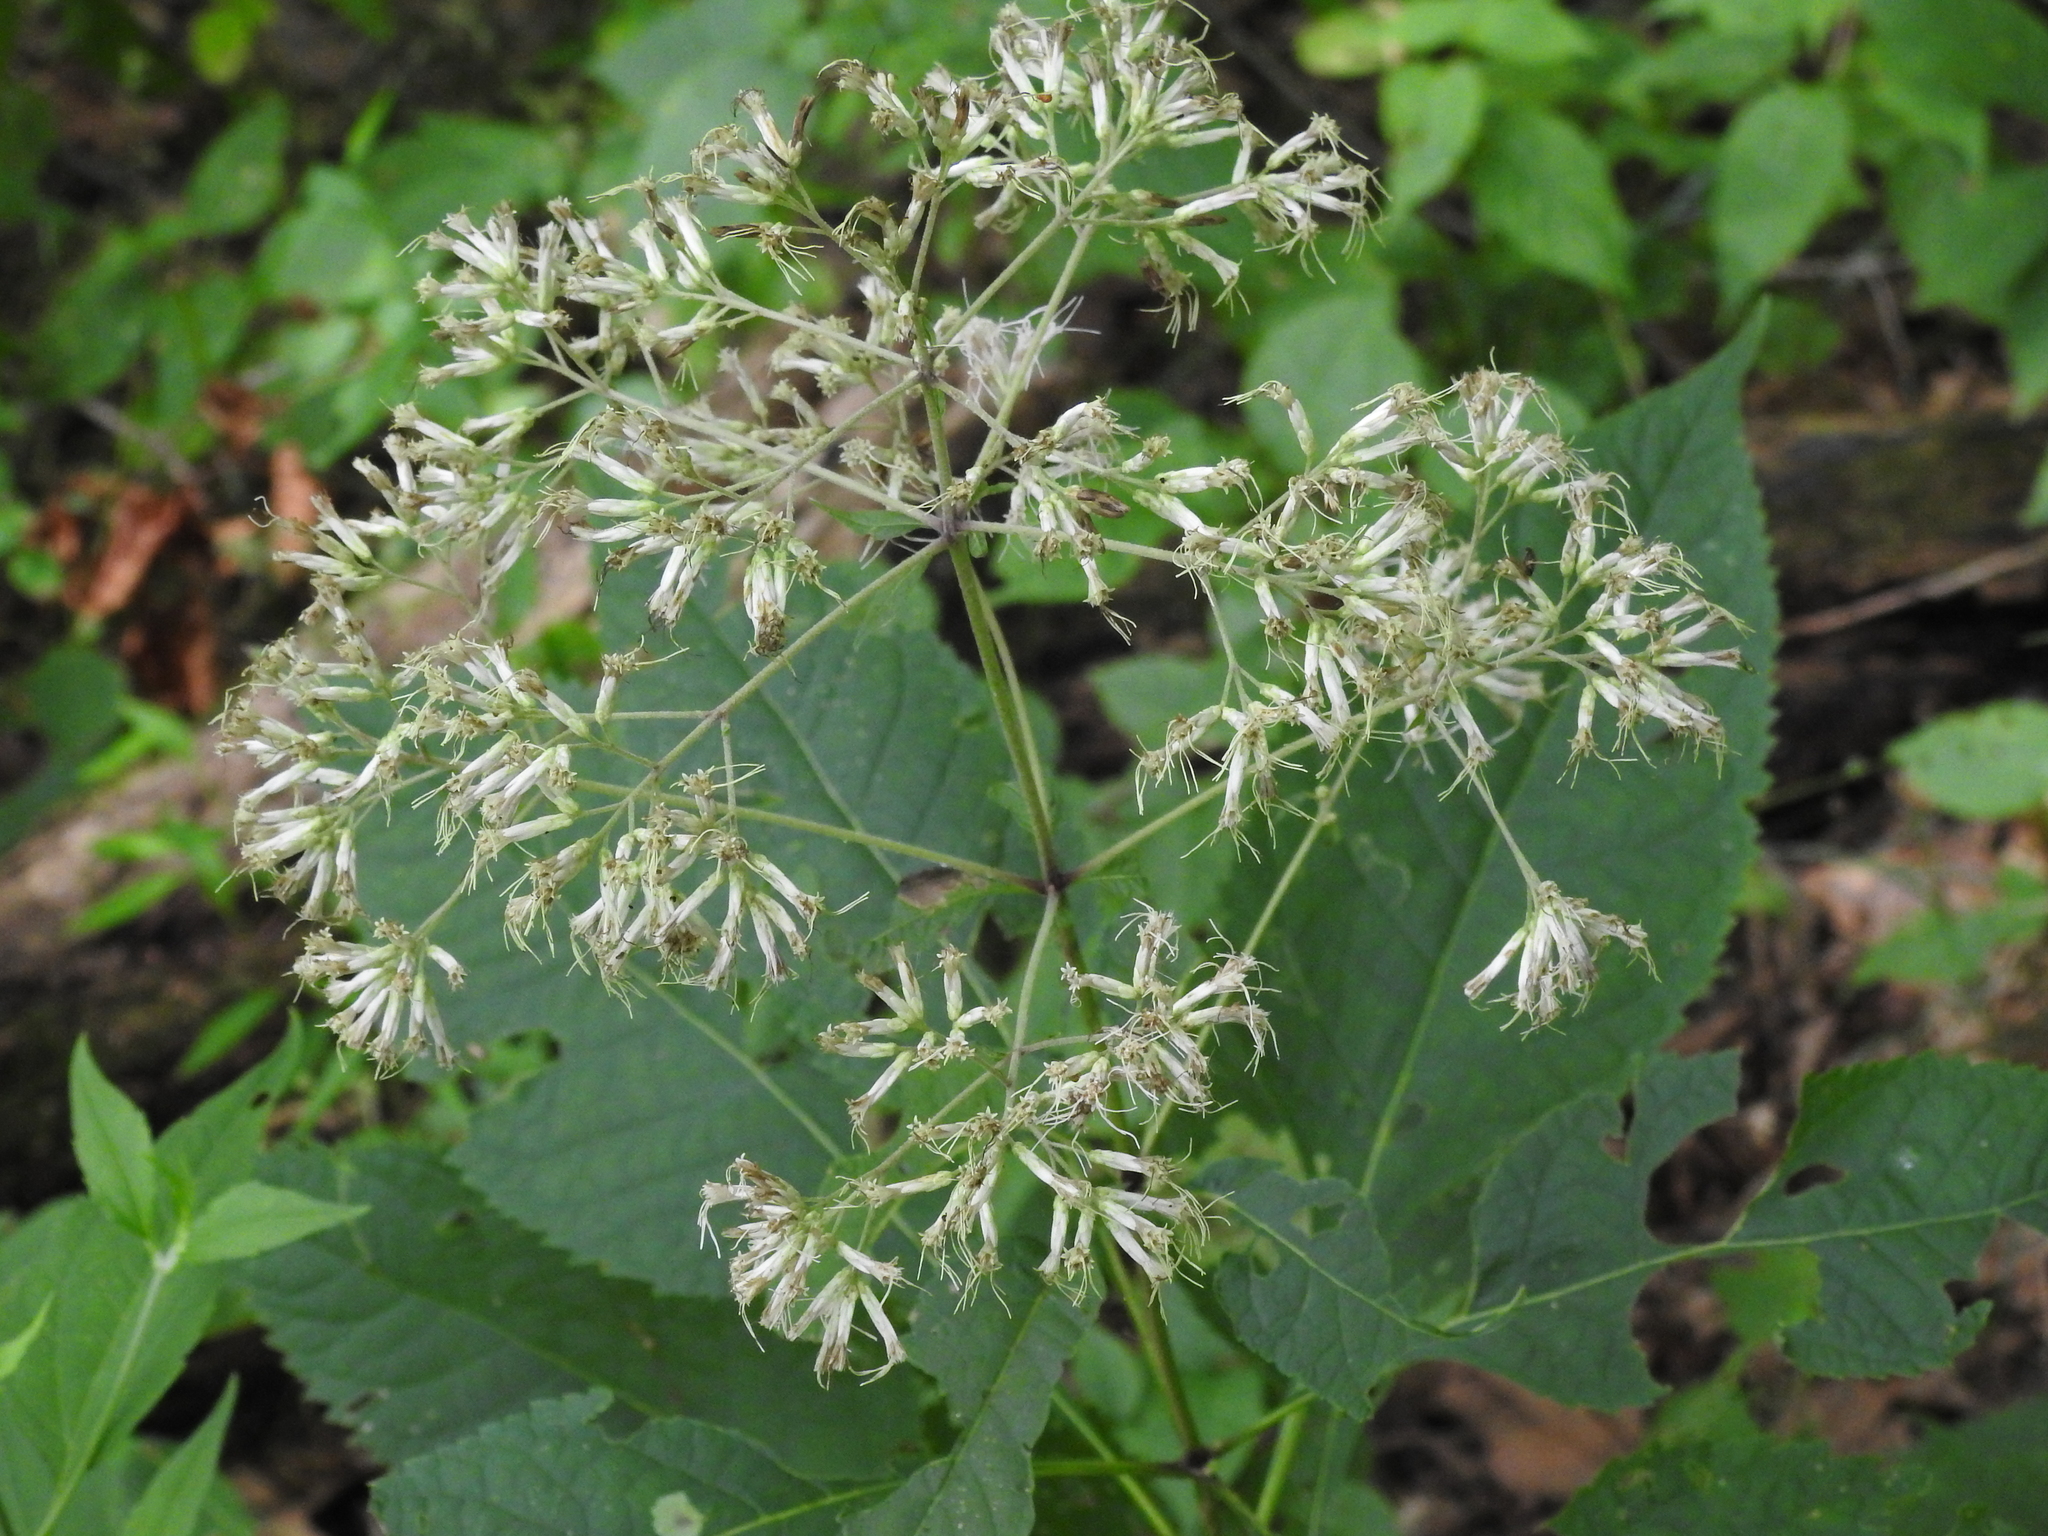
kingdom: Plantae
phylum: Tracheophyta
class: Magnoliopsida
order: Asterales
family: Asteraceae
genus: Eutrochium
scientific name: Eutrochium purpureum
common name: Gravelroot
